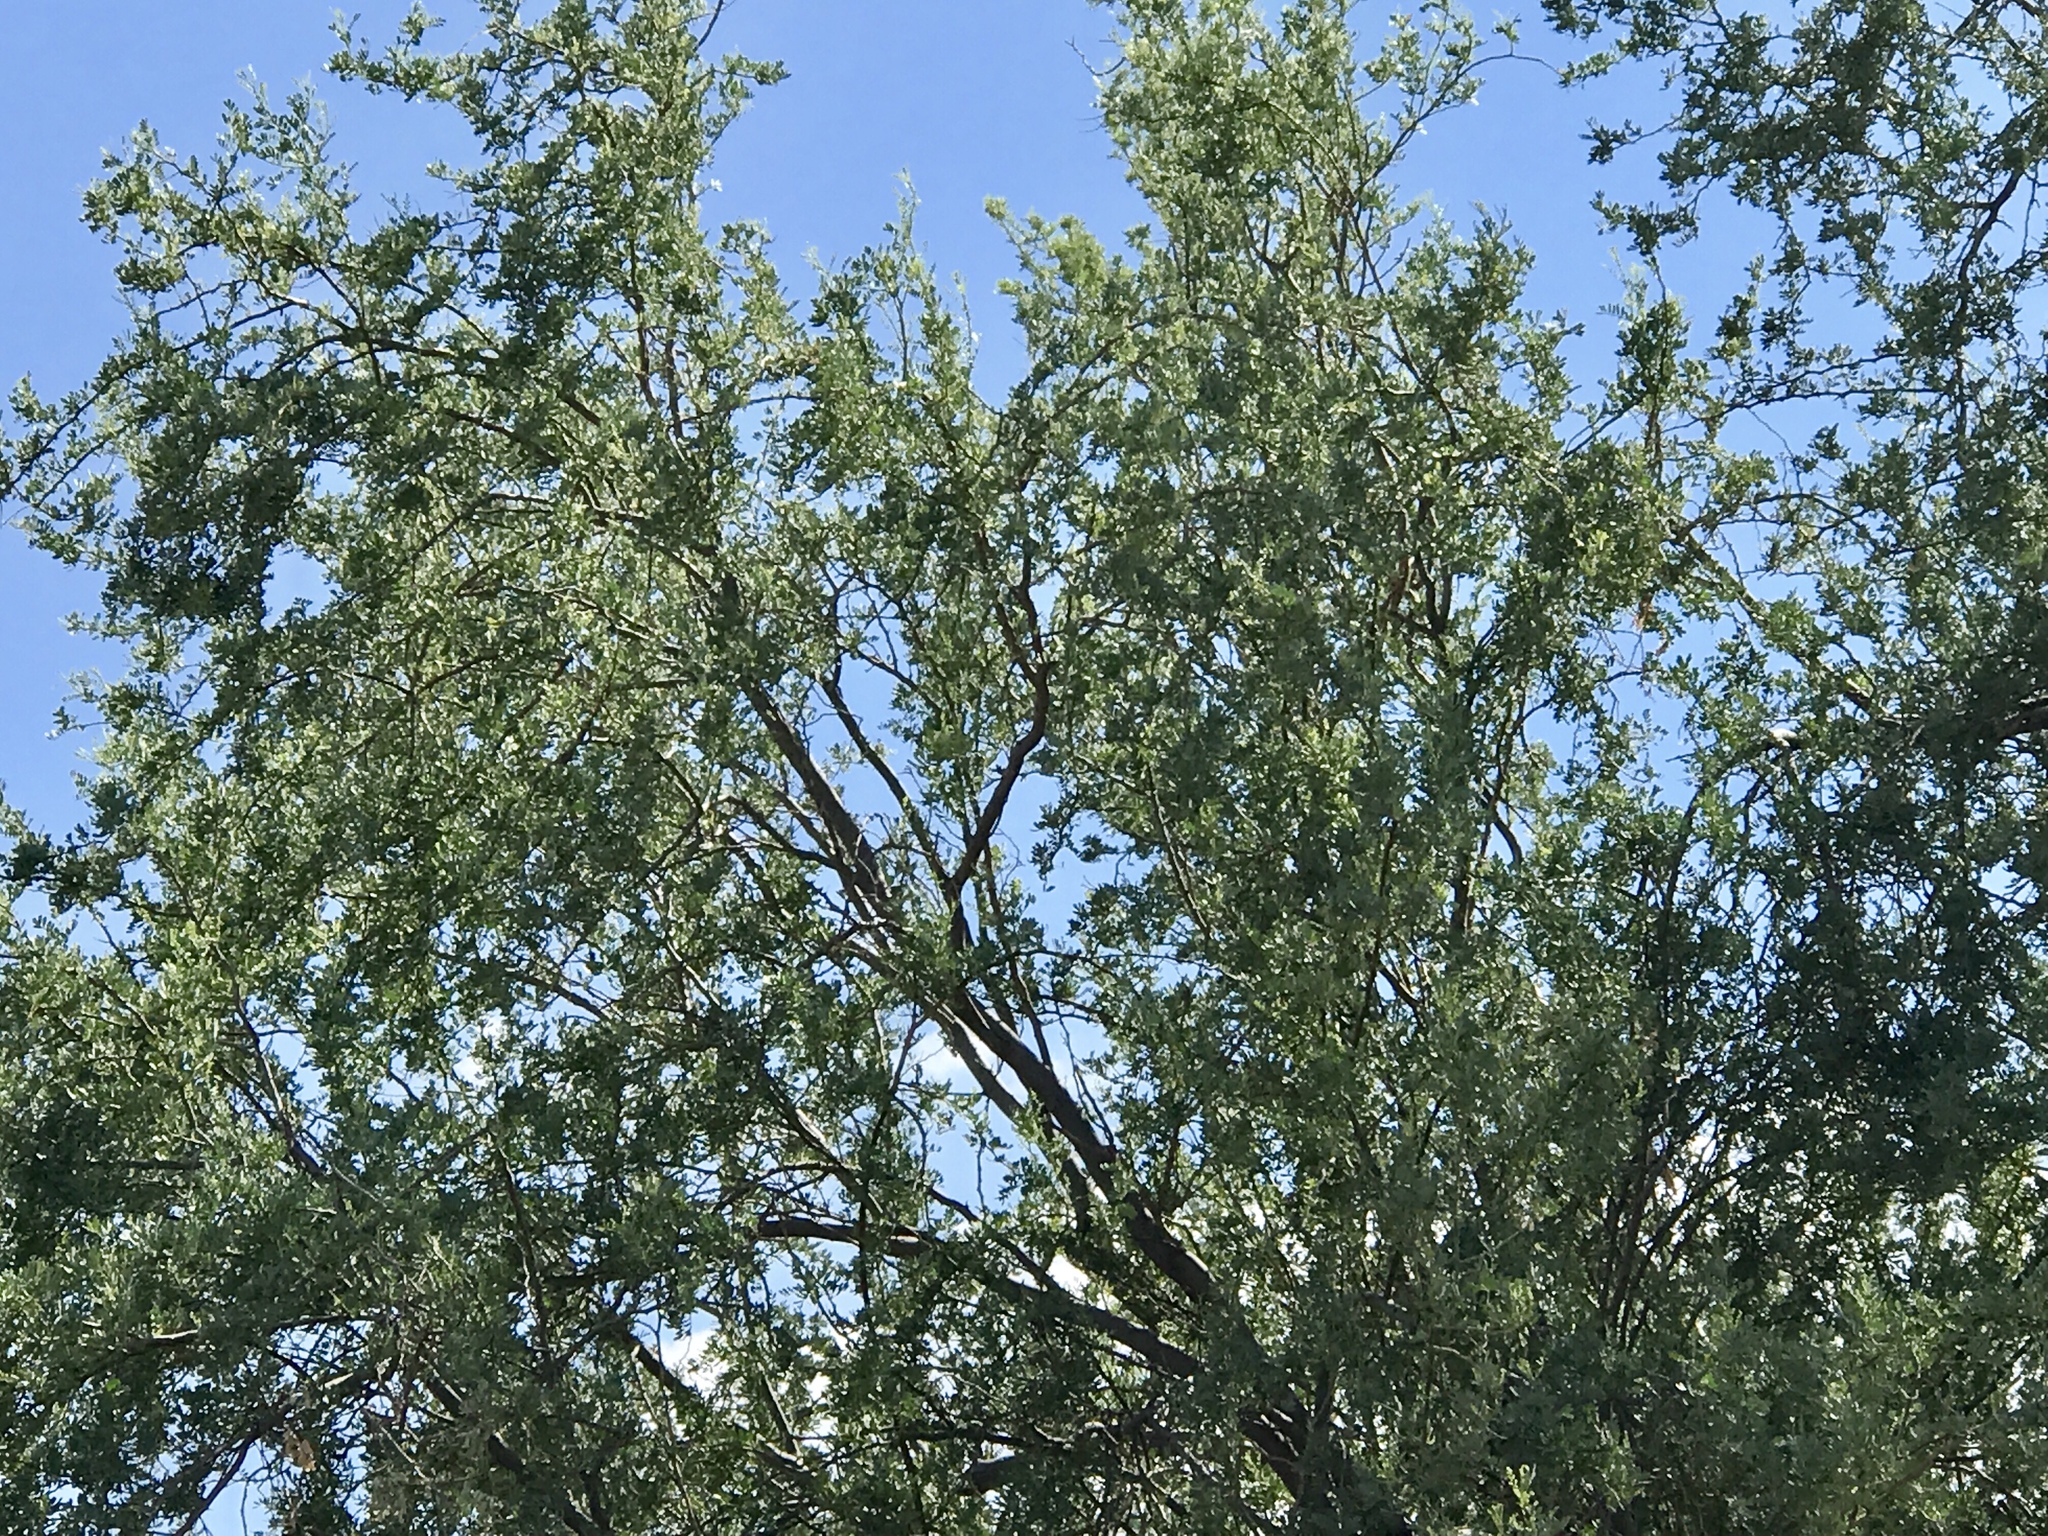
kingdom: Plantae
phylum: Tracheophyta
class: Magnoliopsida
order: Fabales
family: Fabaceae
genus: Olneya
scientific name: Olneya tesota
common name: Desert ironwood
